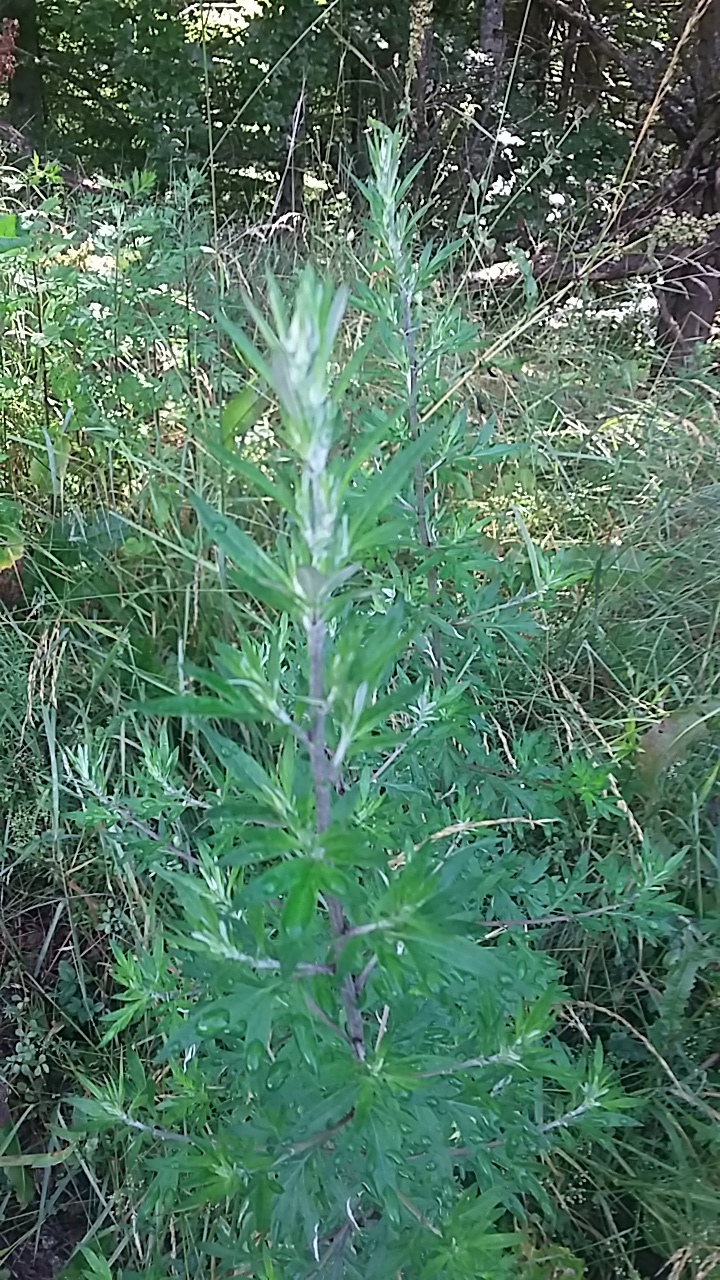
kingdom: Plantae
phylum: Tracheophyta
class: Magnoliopsida
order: Asterales
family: Asteraceae
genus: Artemisia
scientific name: Artemisia vulgaris
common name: Mugwort
